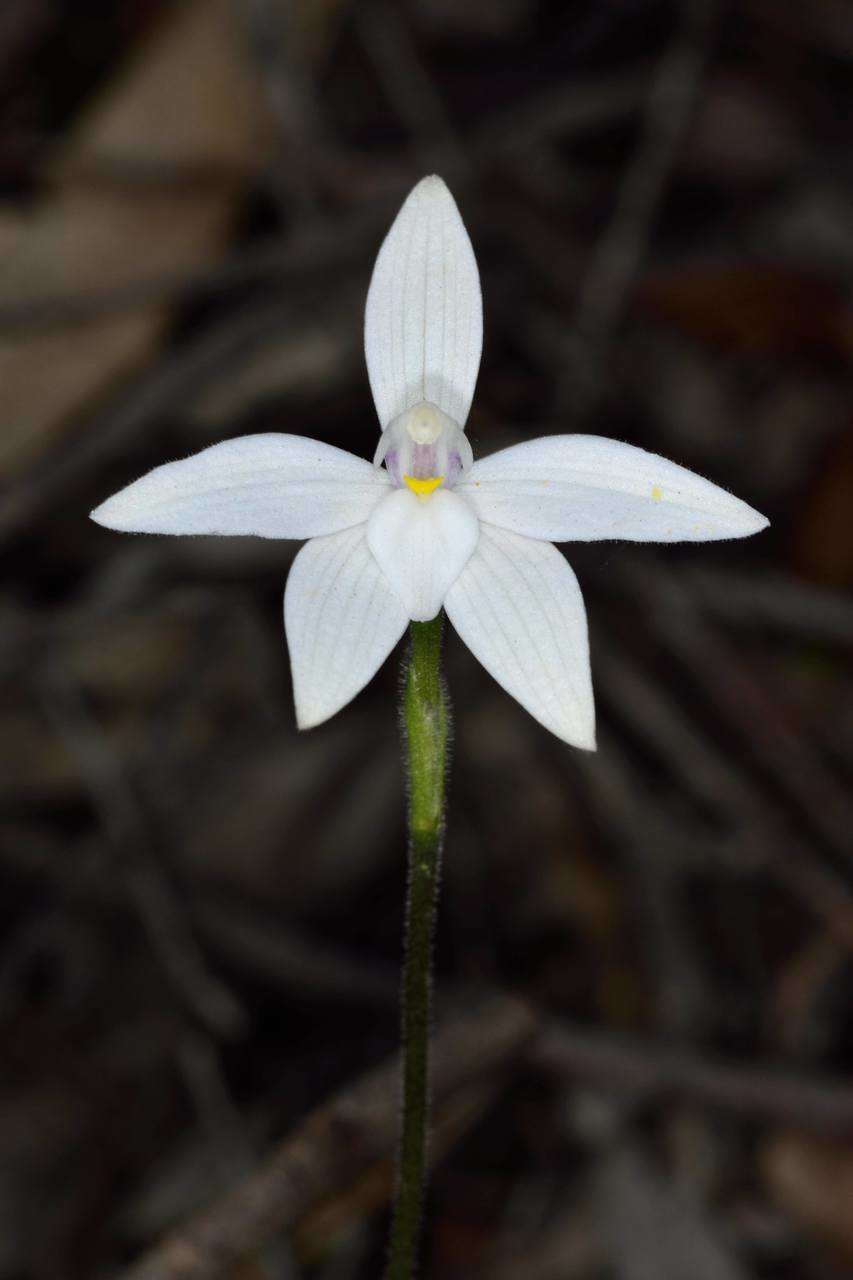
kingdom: Plantae
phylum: Tracheophyta
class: Liliopsida
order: Asparagales
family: Orchidaceae
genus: Caladenia
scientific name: Caladenia major
